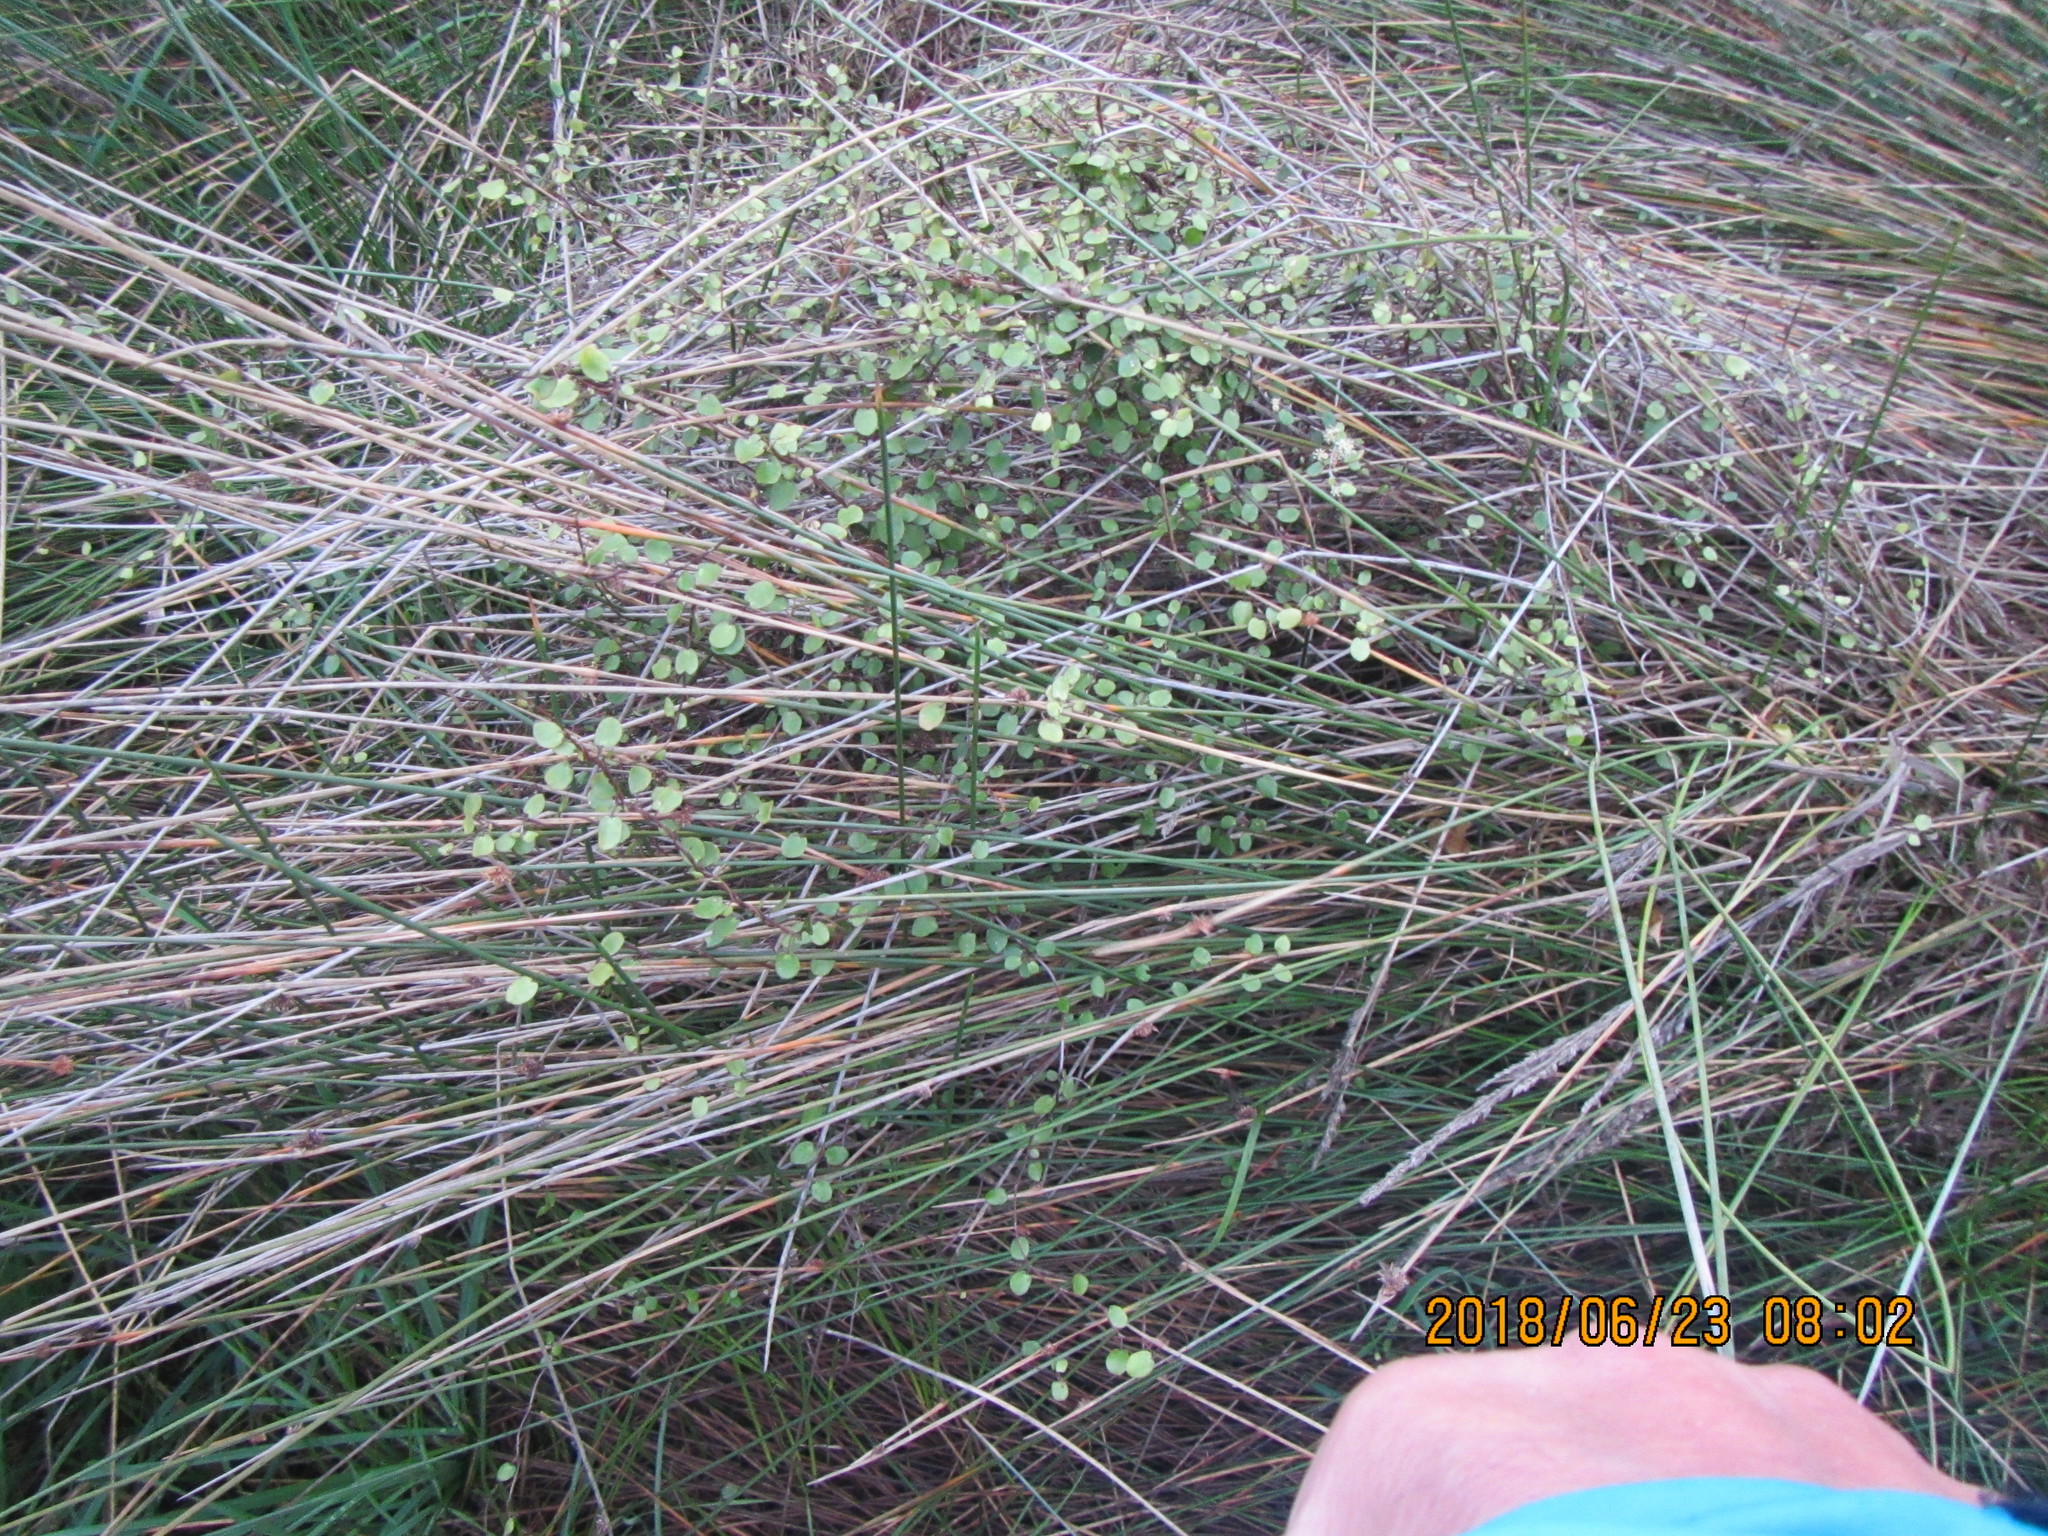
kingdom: Plantae
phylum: Tracheophyta
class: Magnoliopsida
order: Caryophyllales
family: Polygonaceae
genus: Muehlenbeckia
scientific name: Muehlenbeckia complexa
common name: Wireplant
